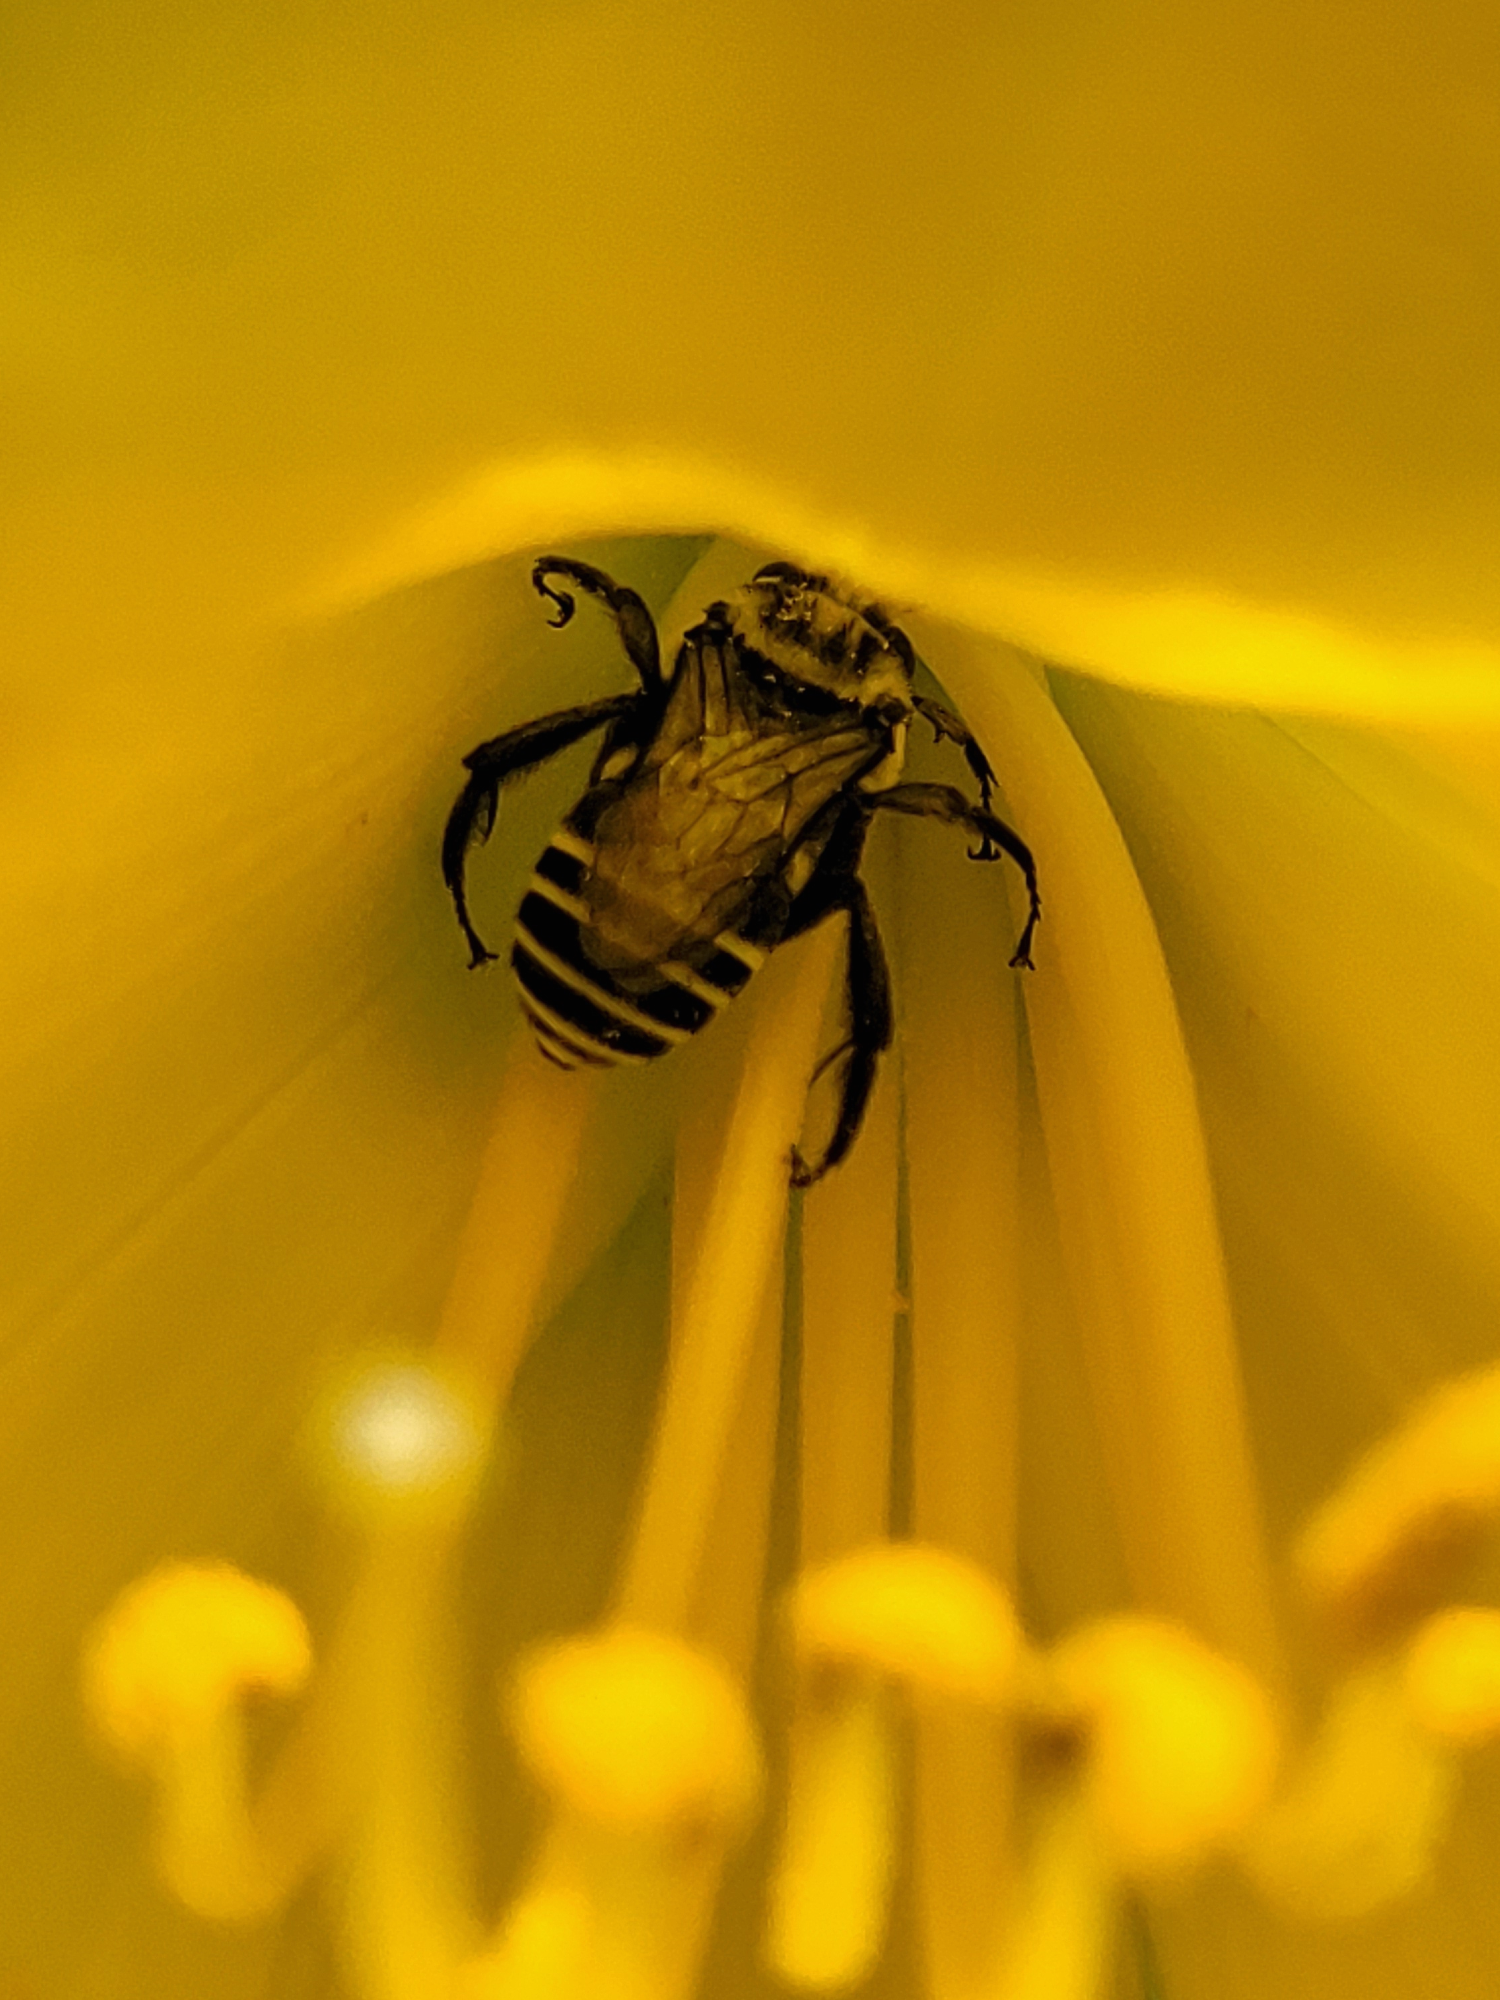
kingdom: Animalia
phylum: Arthropoda
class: Insecta
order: Hymenoptera
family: Apidae
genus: Melitoma
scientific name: Melitoma taurea
